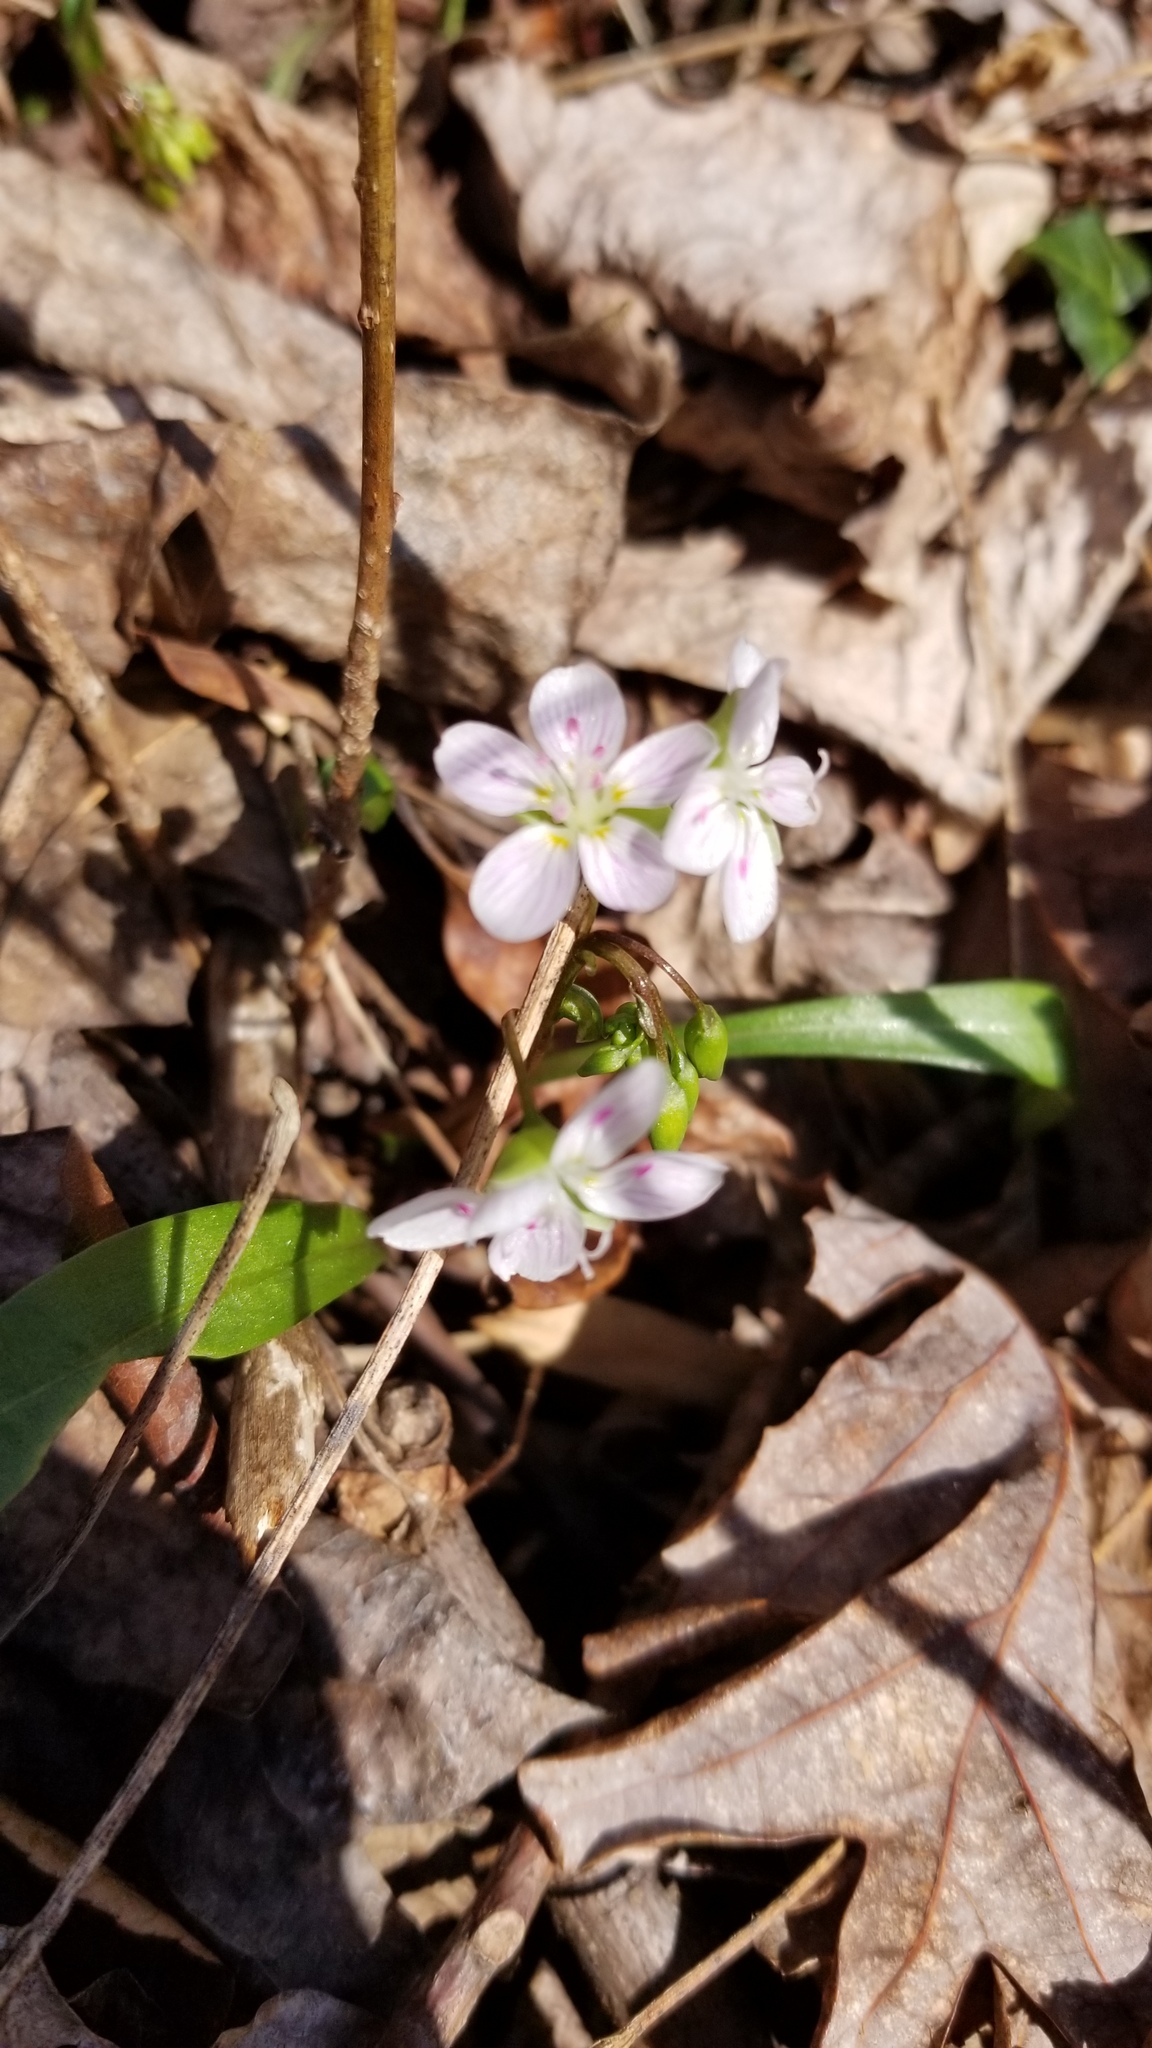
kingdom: Plantae
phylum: Tracheophyta
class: Magnoliopsida
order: Caryophyllales
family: Montiaceae
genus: Claytonia
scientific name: Claytonia virginica
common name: Virginia springbeauty
